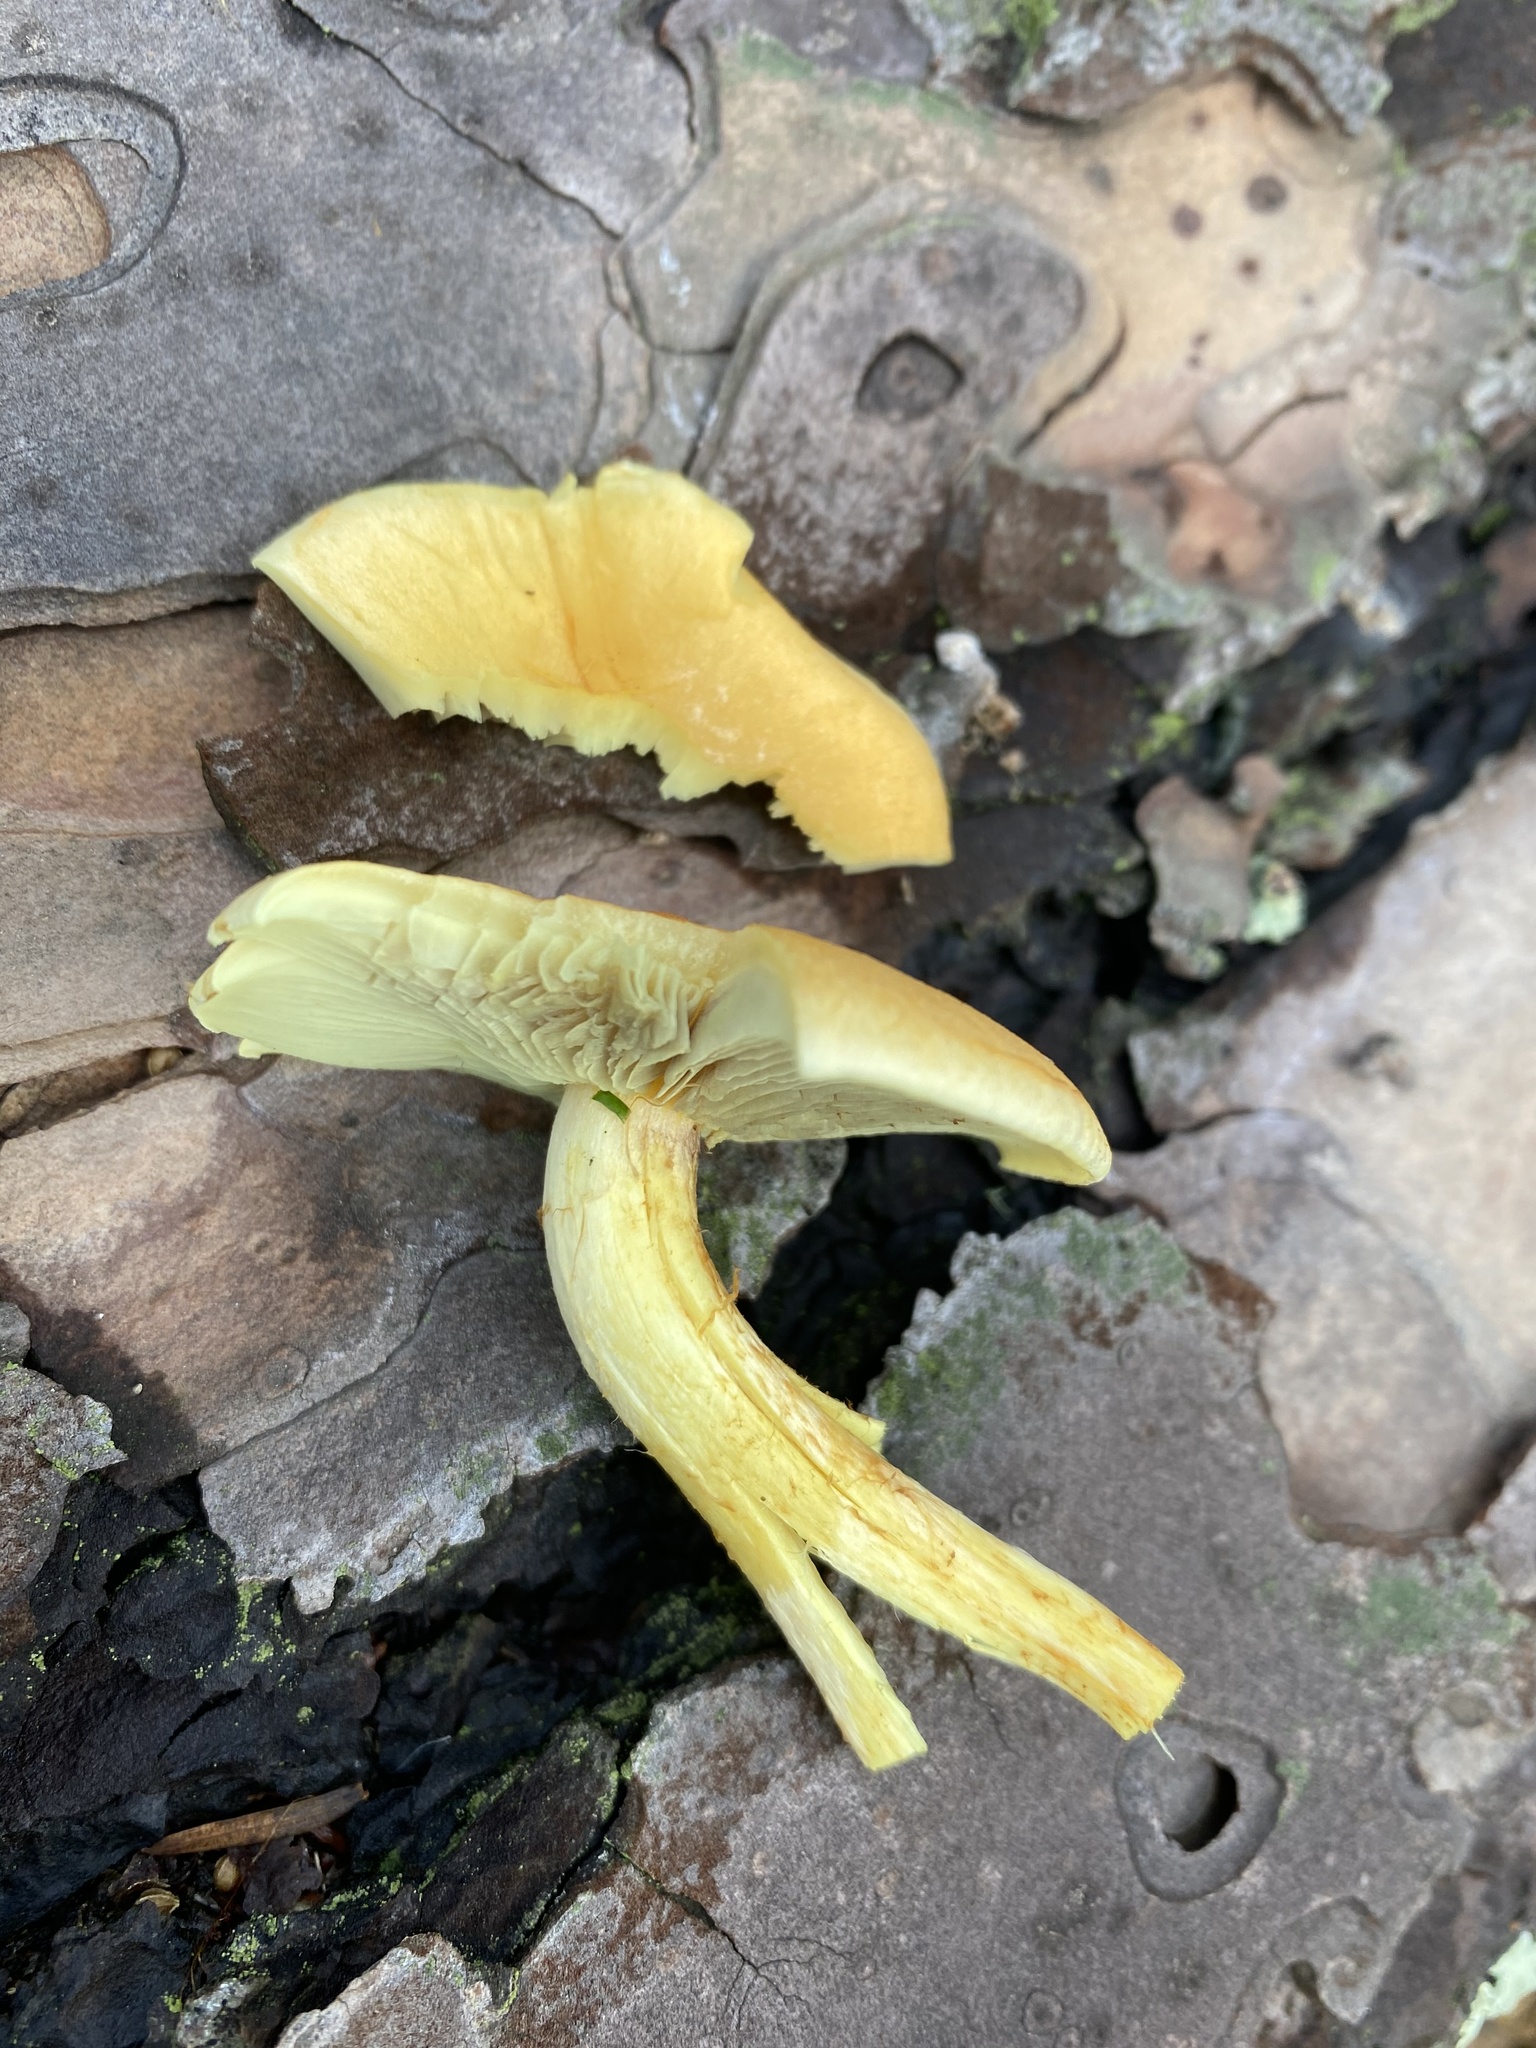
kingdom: Fungi
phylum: Basidiomycota
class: Agaricomycetes
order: Agaricales
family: Hymenogastraceae
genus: Flammula
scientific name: Flammula alnicola
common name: Alder scalycap
